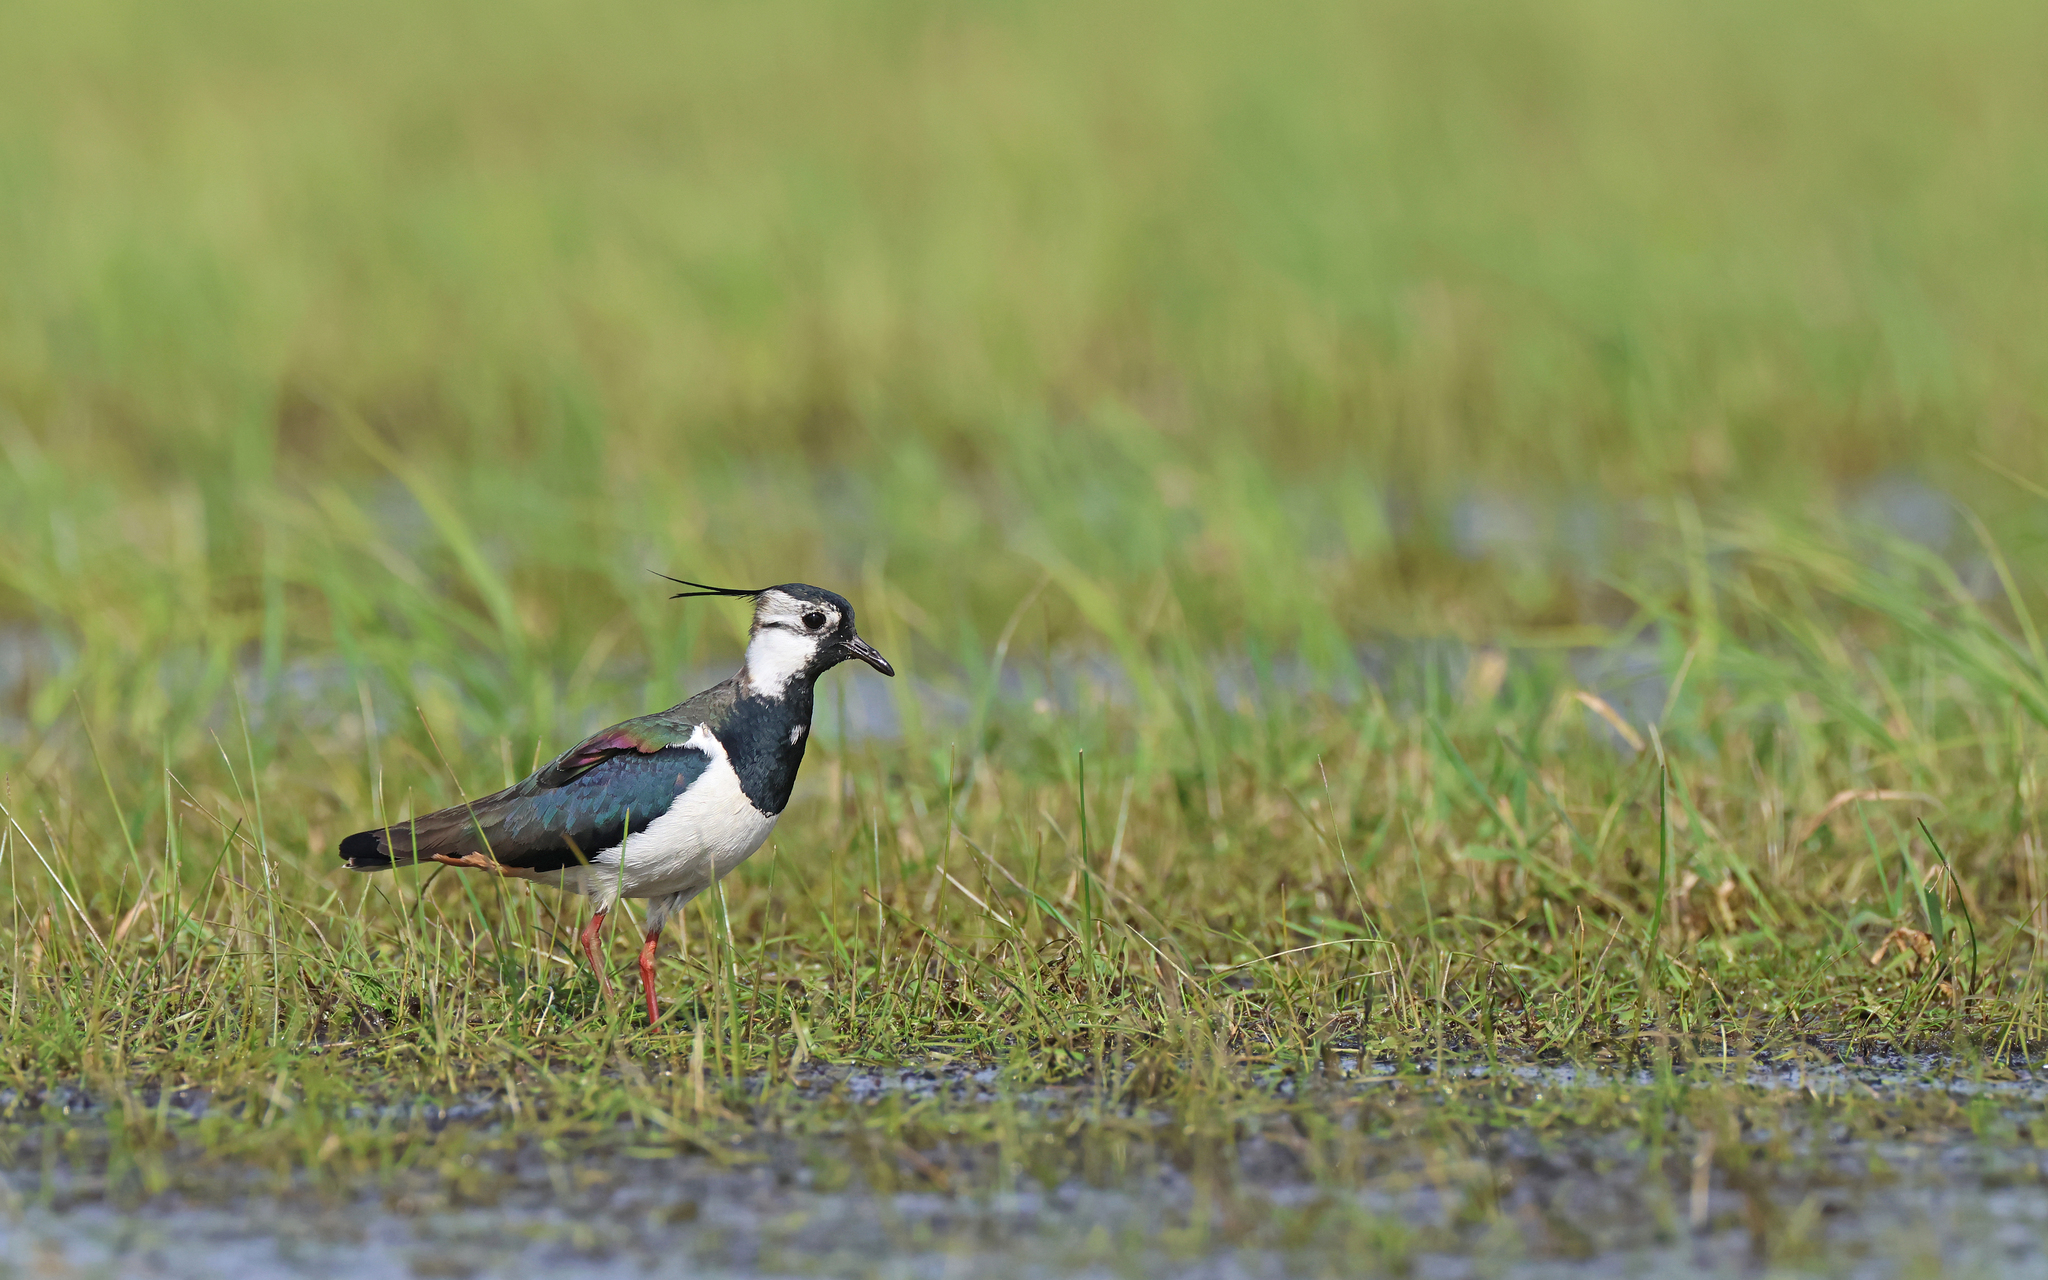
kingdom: Animalia
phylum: Chordata
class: Aves
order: Charadriiformes
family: Charadriidae
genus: Vanellus
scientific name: Vanellus vanellus
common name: Northern lapwing
